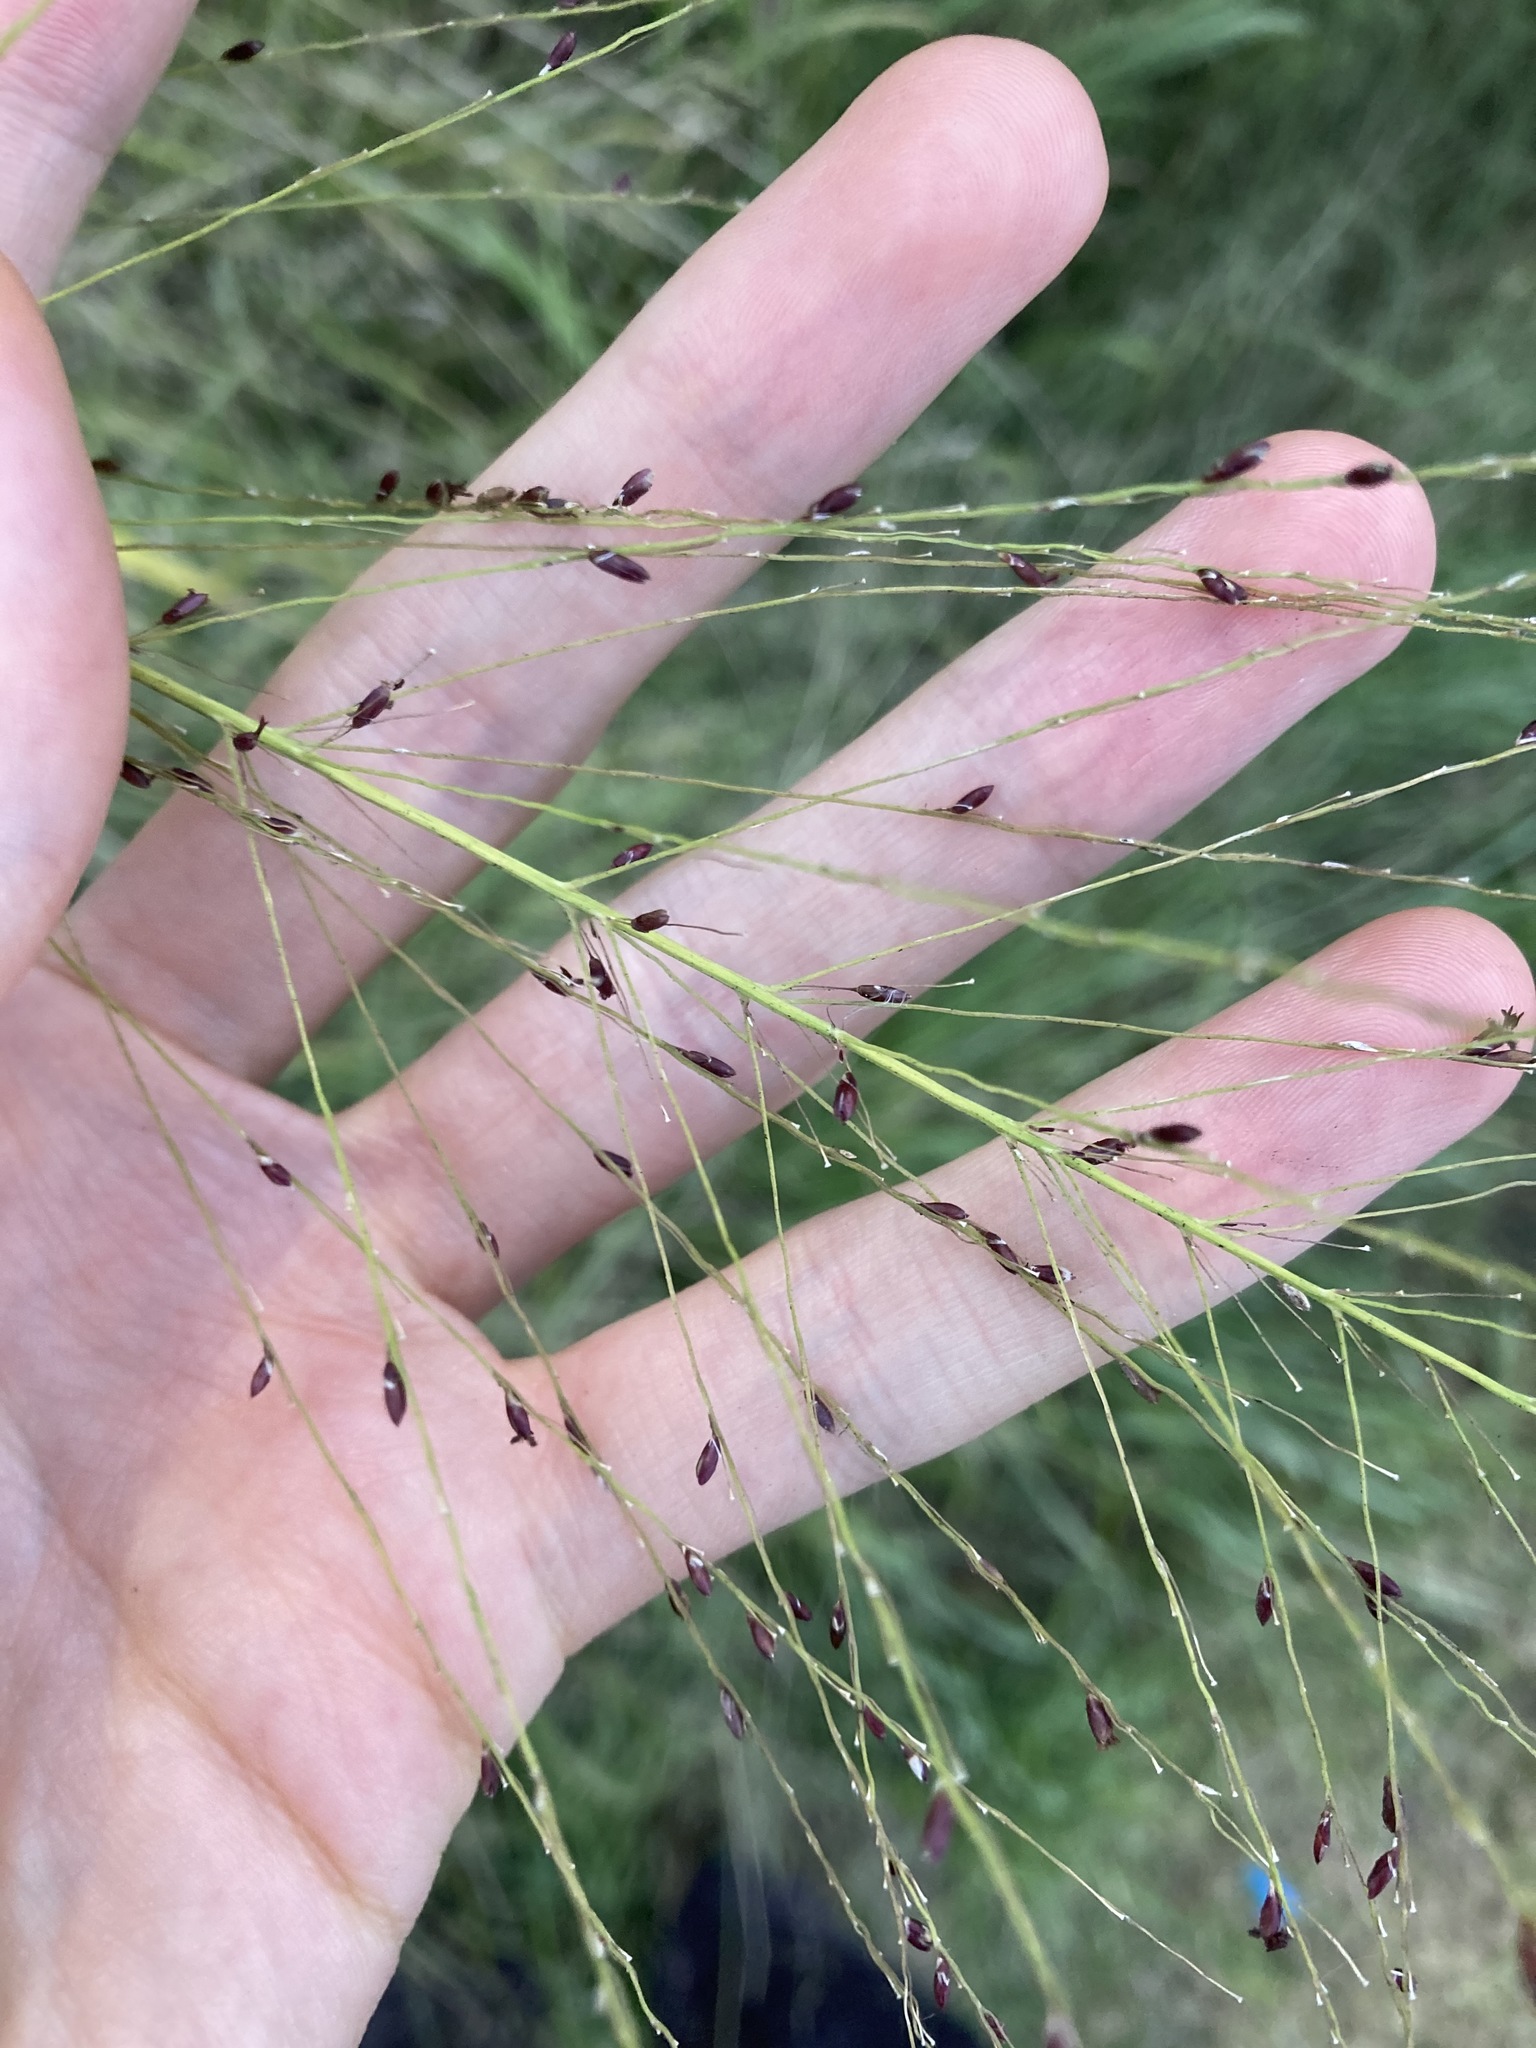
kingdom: Plantae
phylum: Tracheophyta
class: Liliopsida
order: Poales
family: Poaceae
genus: Megathyrsus
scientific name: Megathyrsus maximus
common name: Guineagrass
